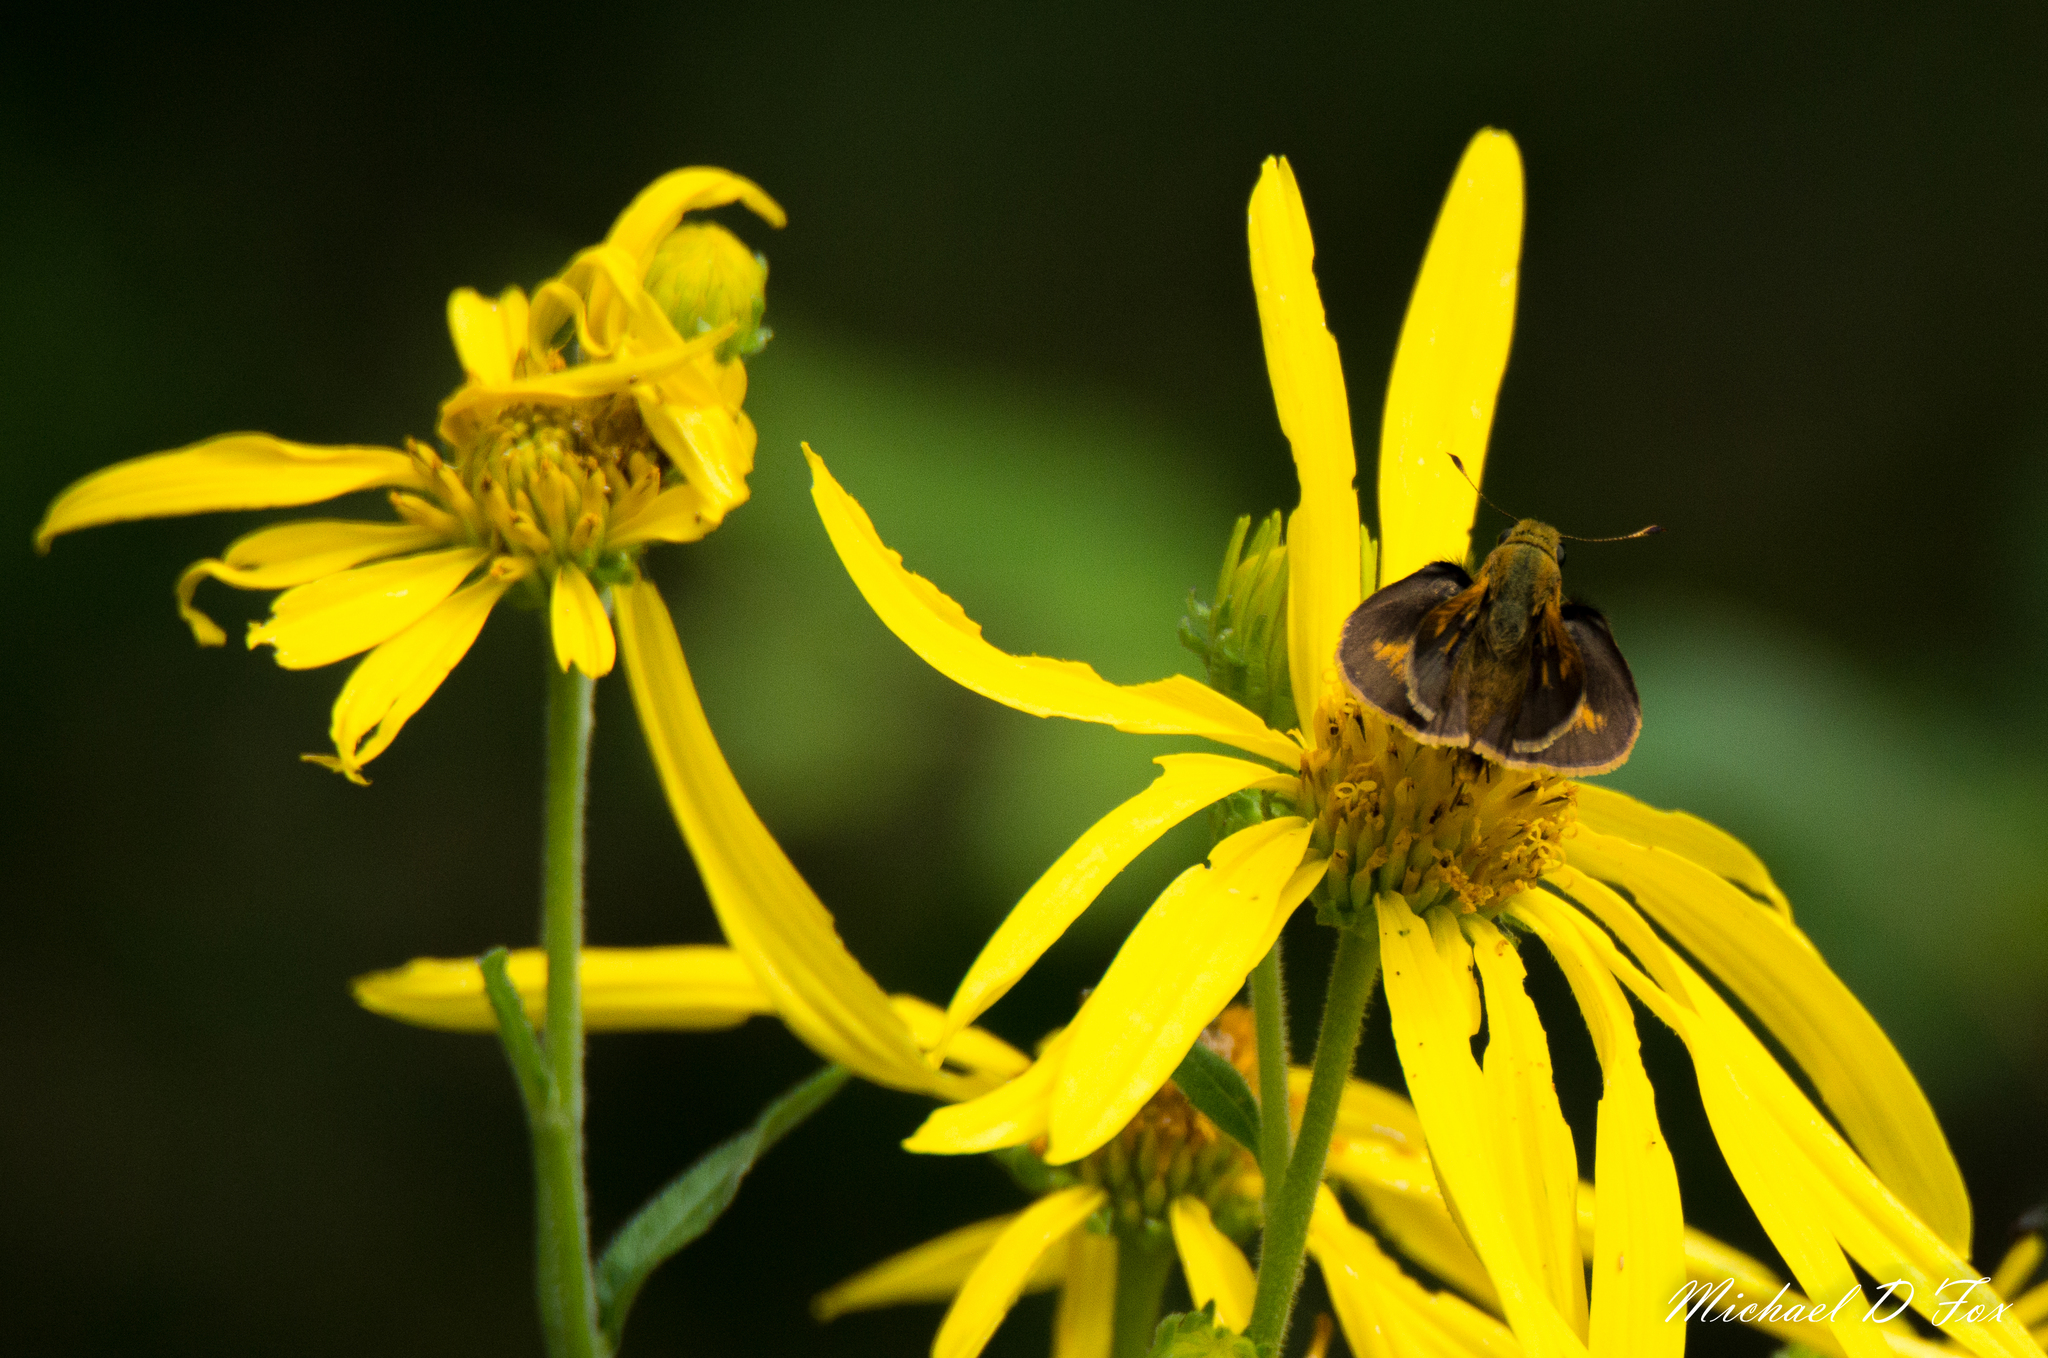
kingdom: Animalia
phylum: Arthropoda
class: Insecta
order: Lepidoptera
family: Hesperiidae
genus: Polites
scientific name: Polites otho
